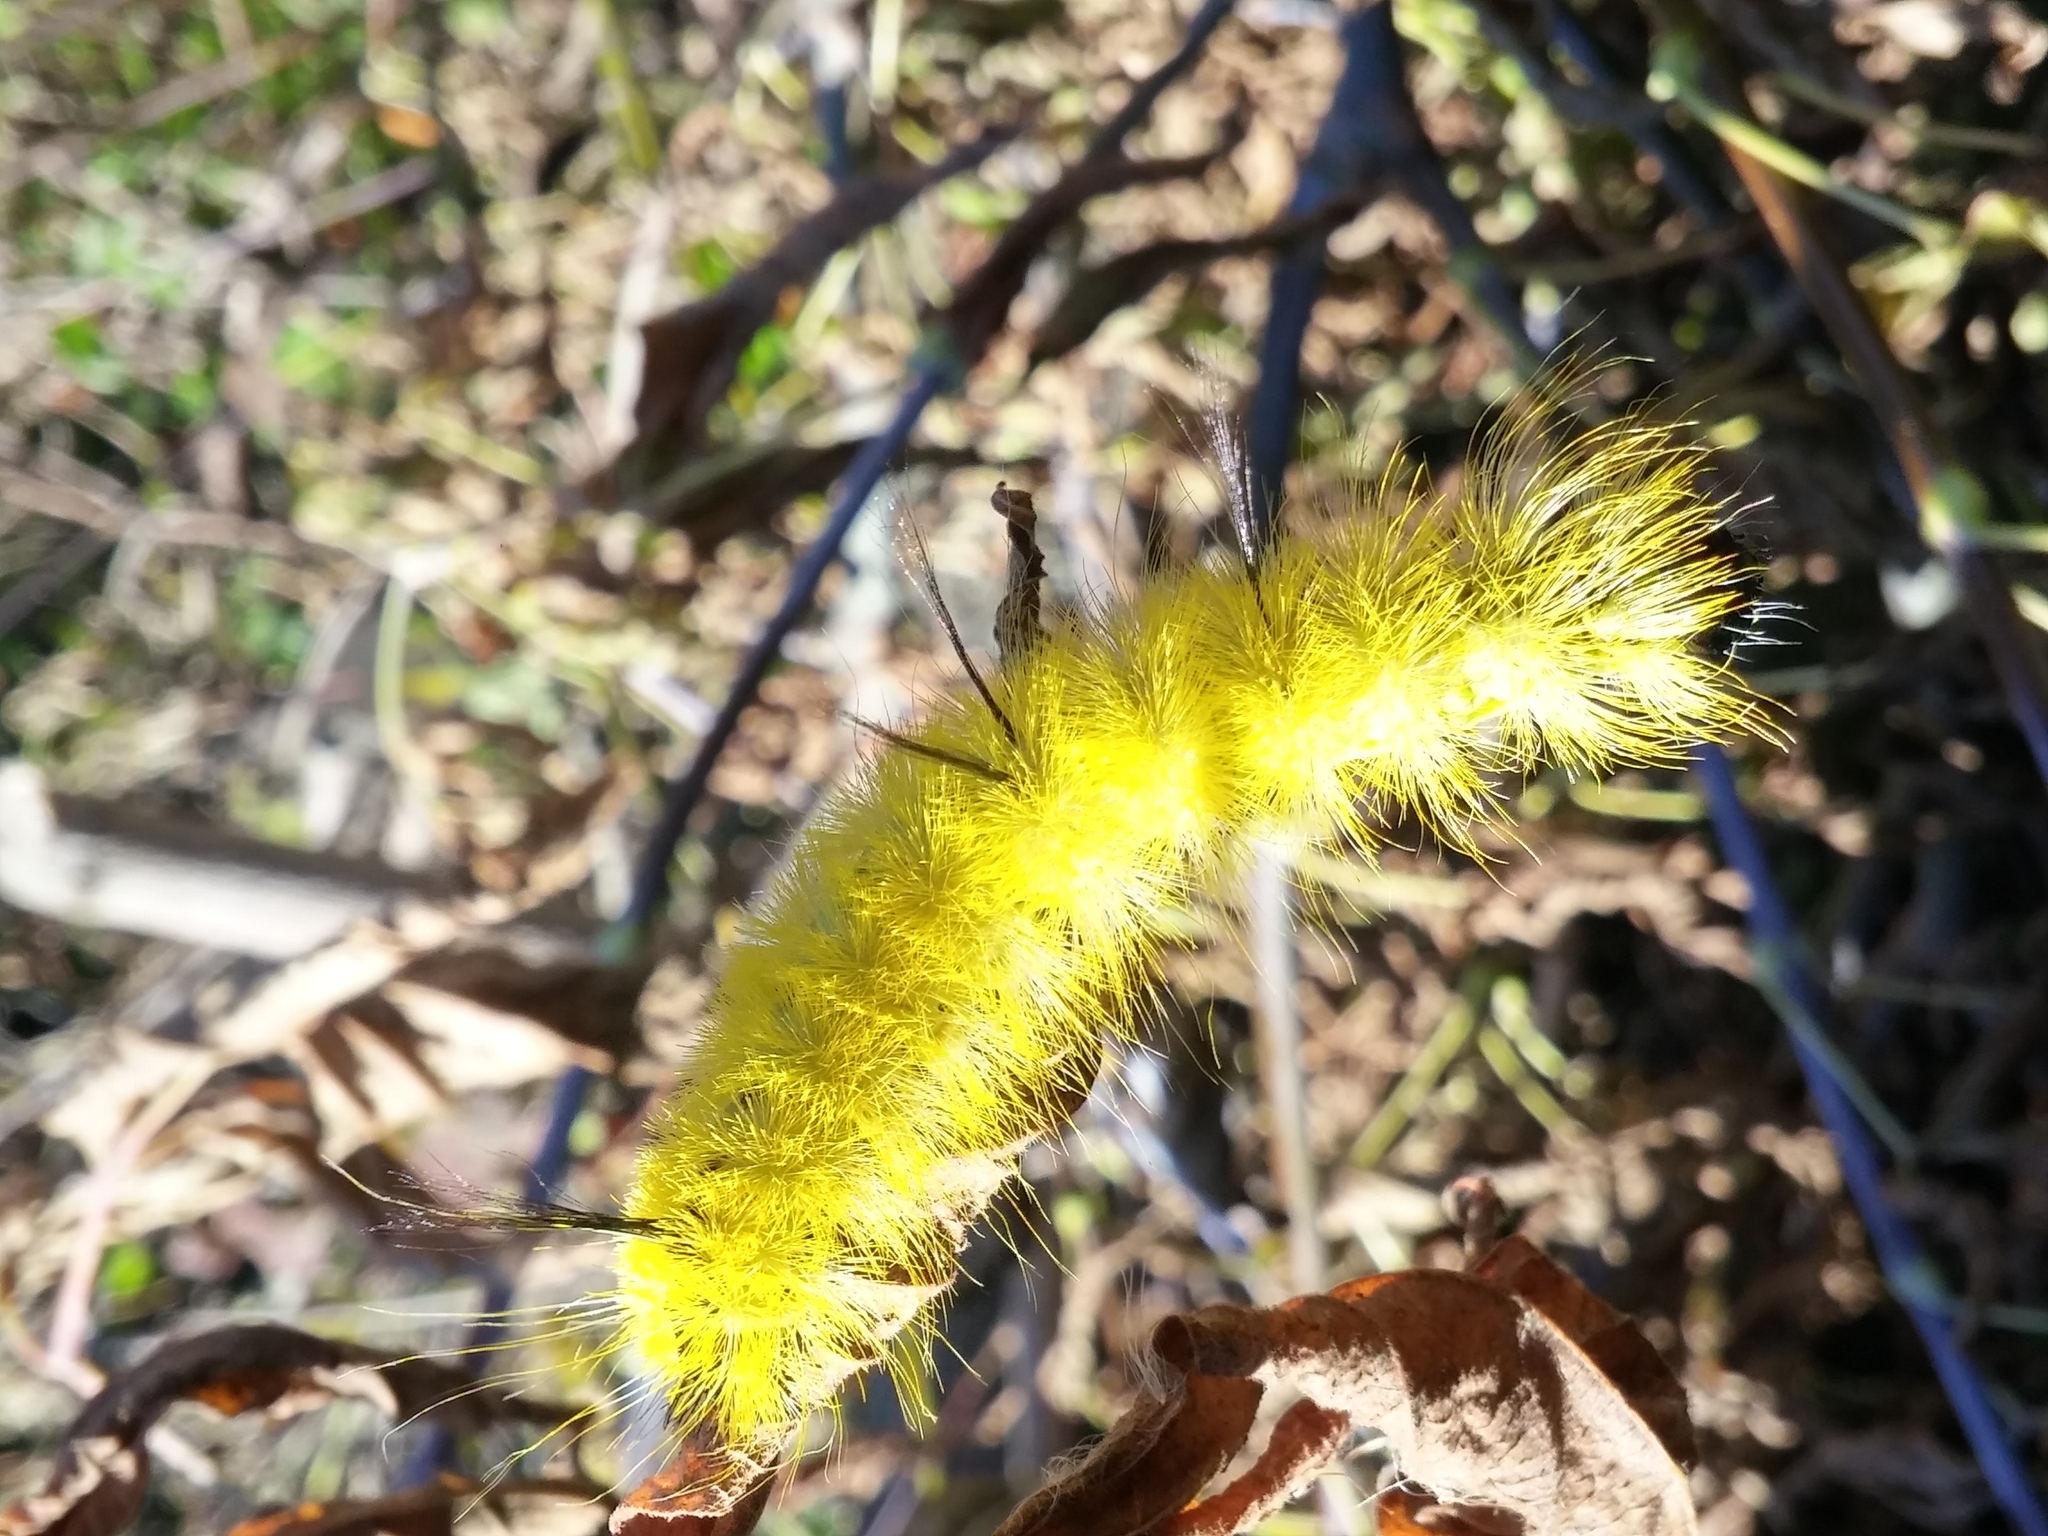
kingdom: Animalia
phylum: Arthropoda
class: Insecta
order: Lepidoptera
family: Noctuidae
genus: Acronicta
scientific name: Acronicta americana
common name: American dagger
